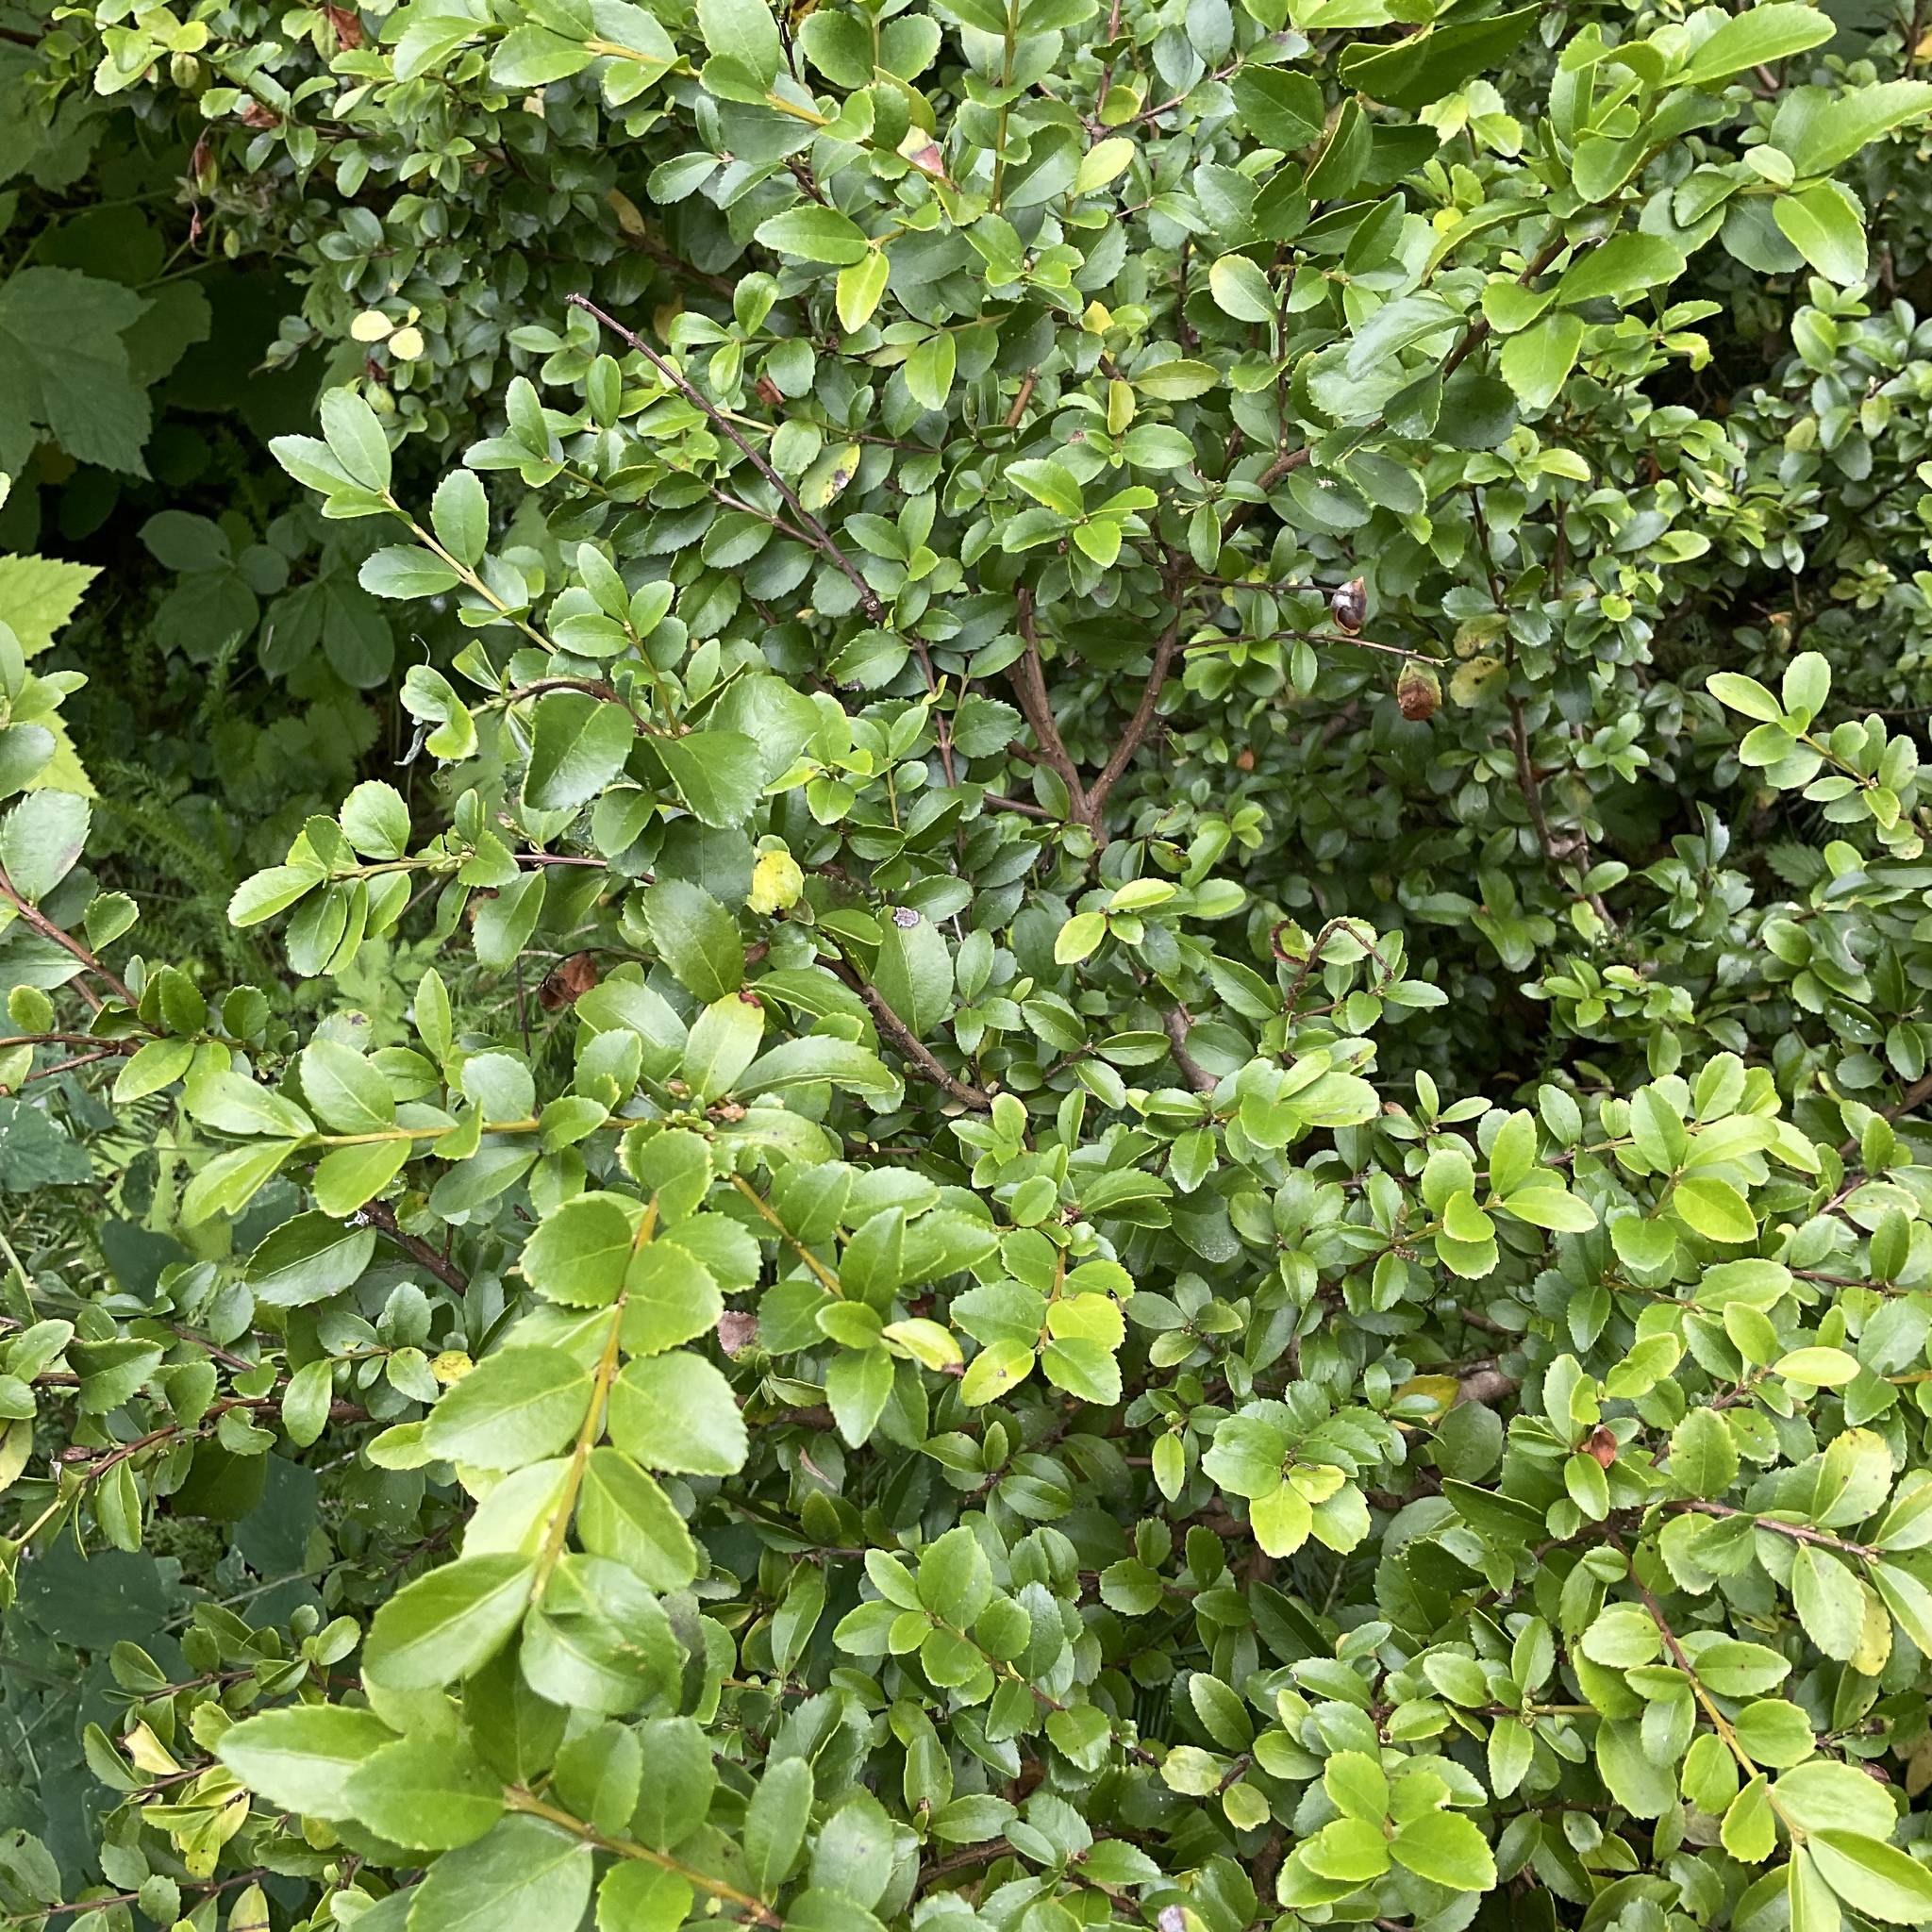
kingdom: Plantae
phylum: Tracheophyta
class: Magnoliopsida
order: Celastrales
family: Celastraceae
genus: Paxistima
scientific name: Paxistima myrsinites
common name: Mountain-lover
